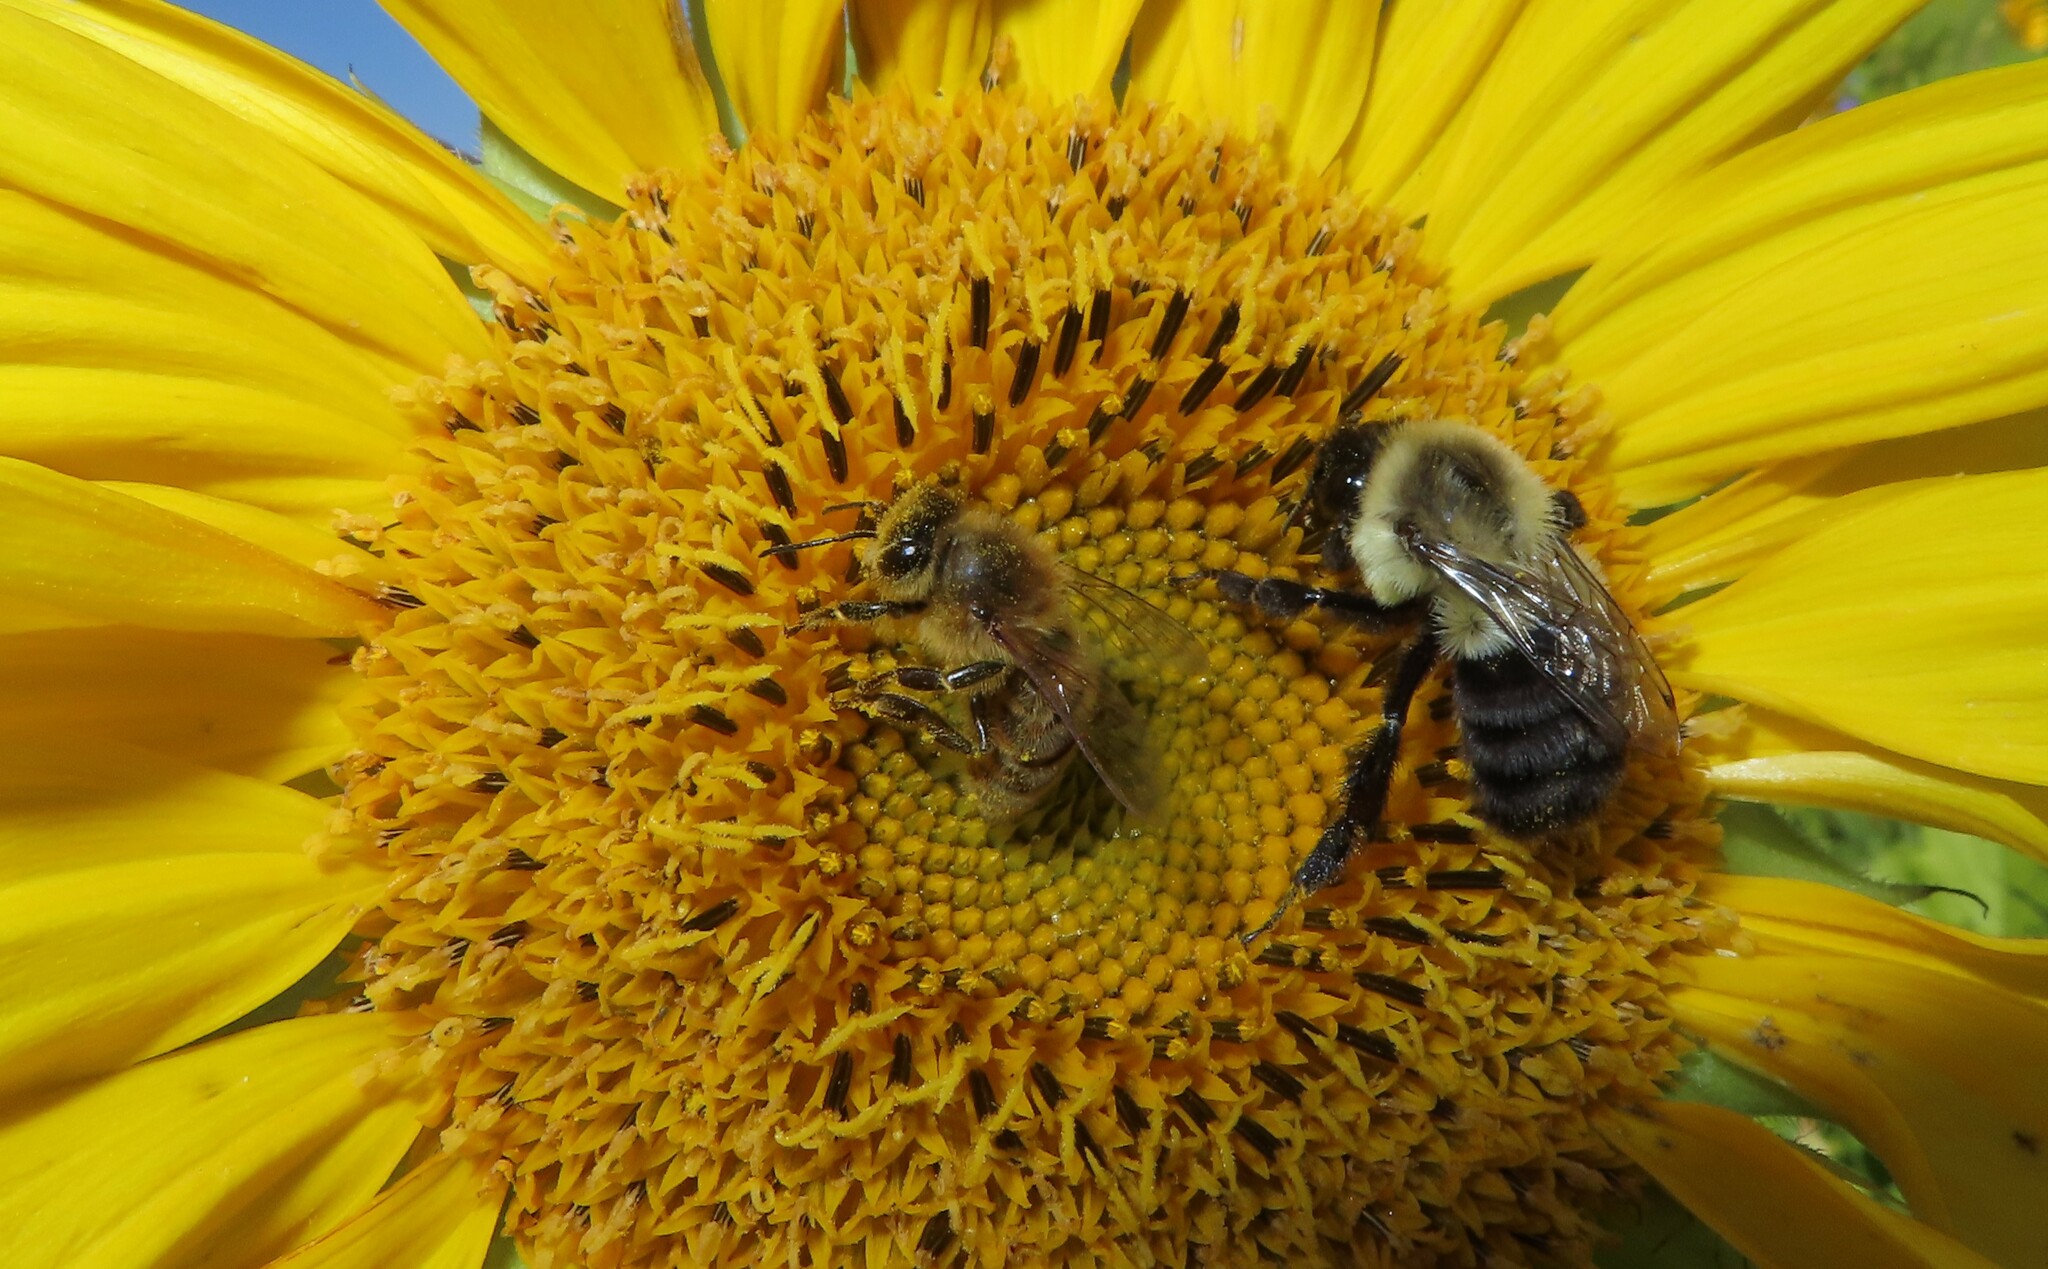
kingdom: Animalia
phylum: Arthropoda
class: Insecta
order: Hymenoptera
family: Apidae
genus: Bombus
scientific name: Bombus impatiens
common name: Common eastern bumble bee
